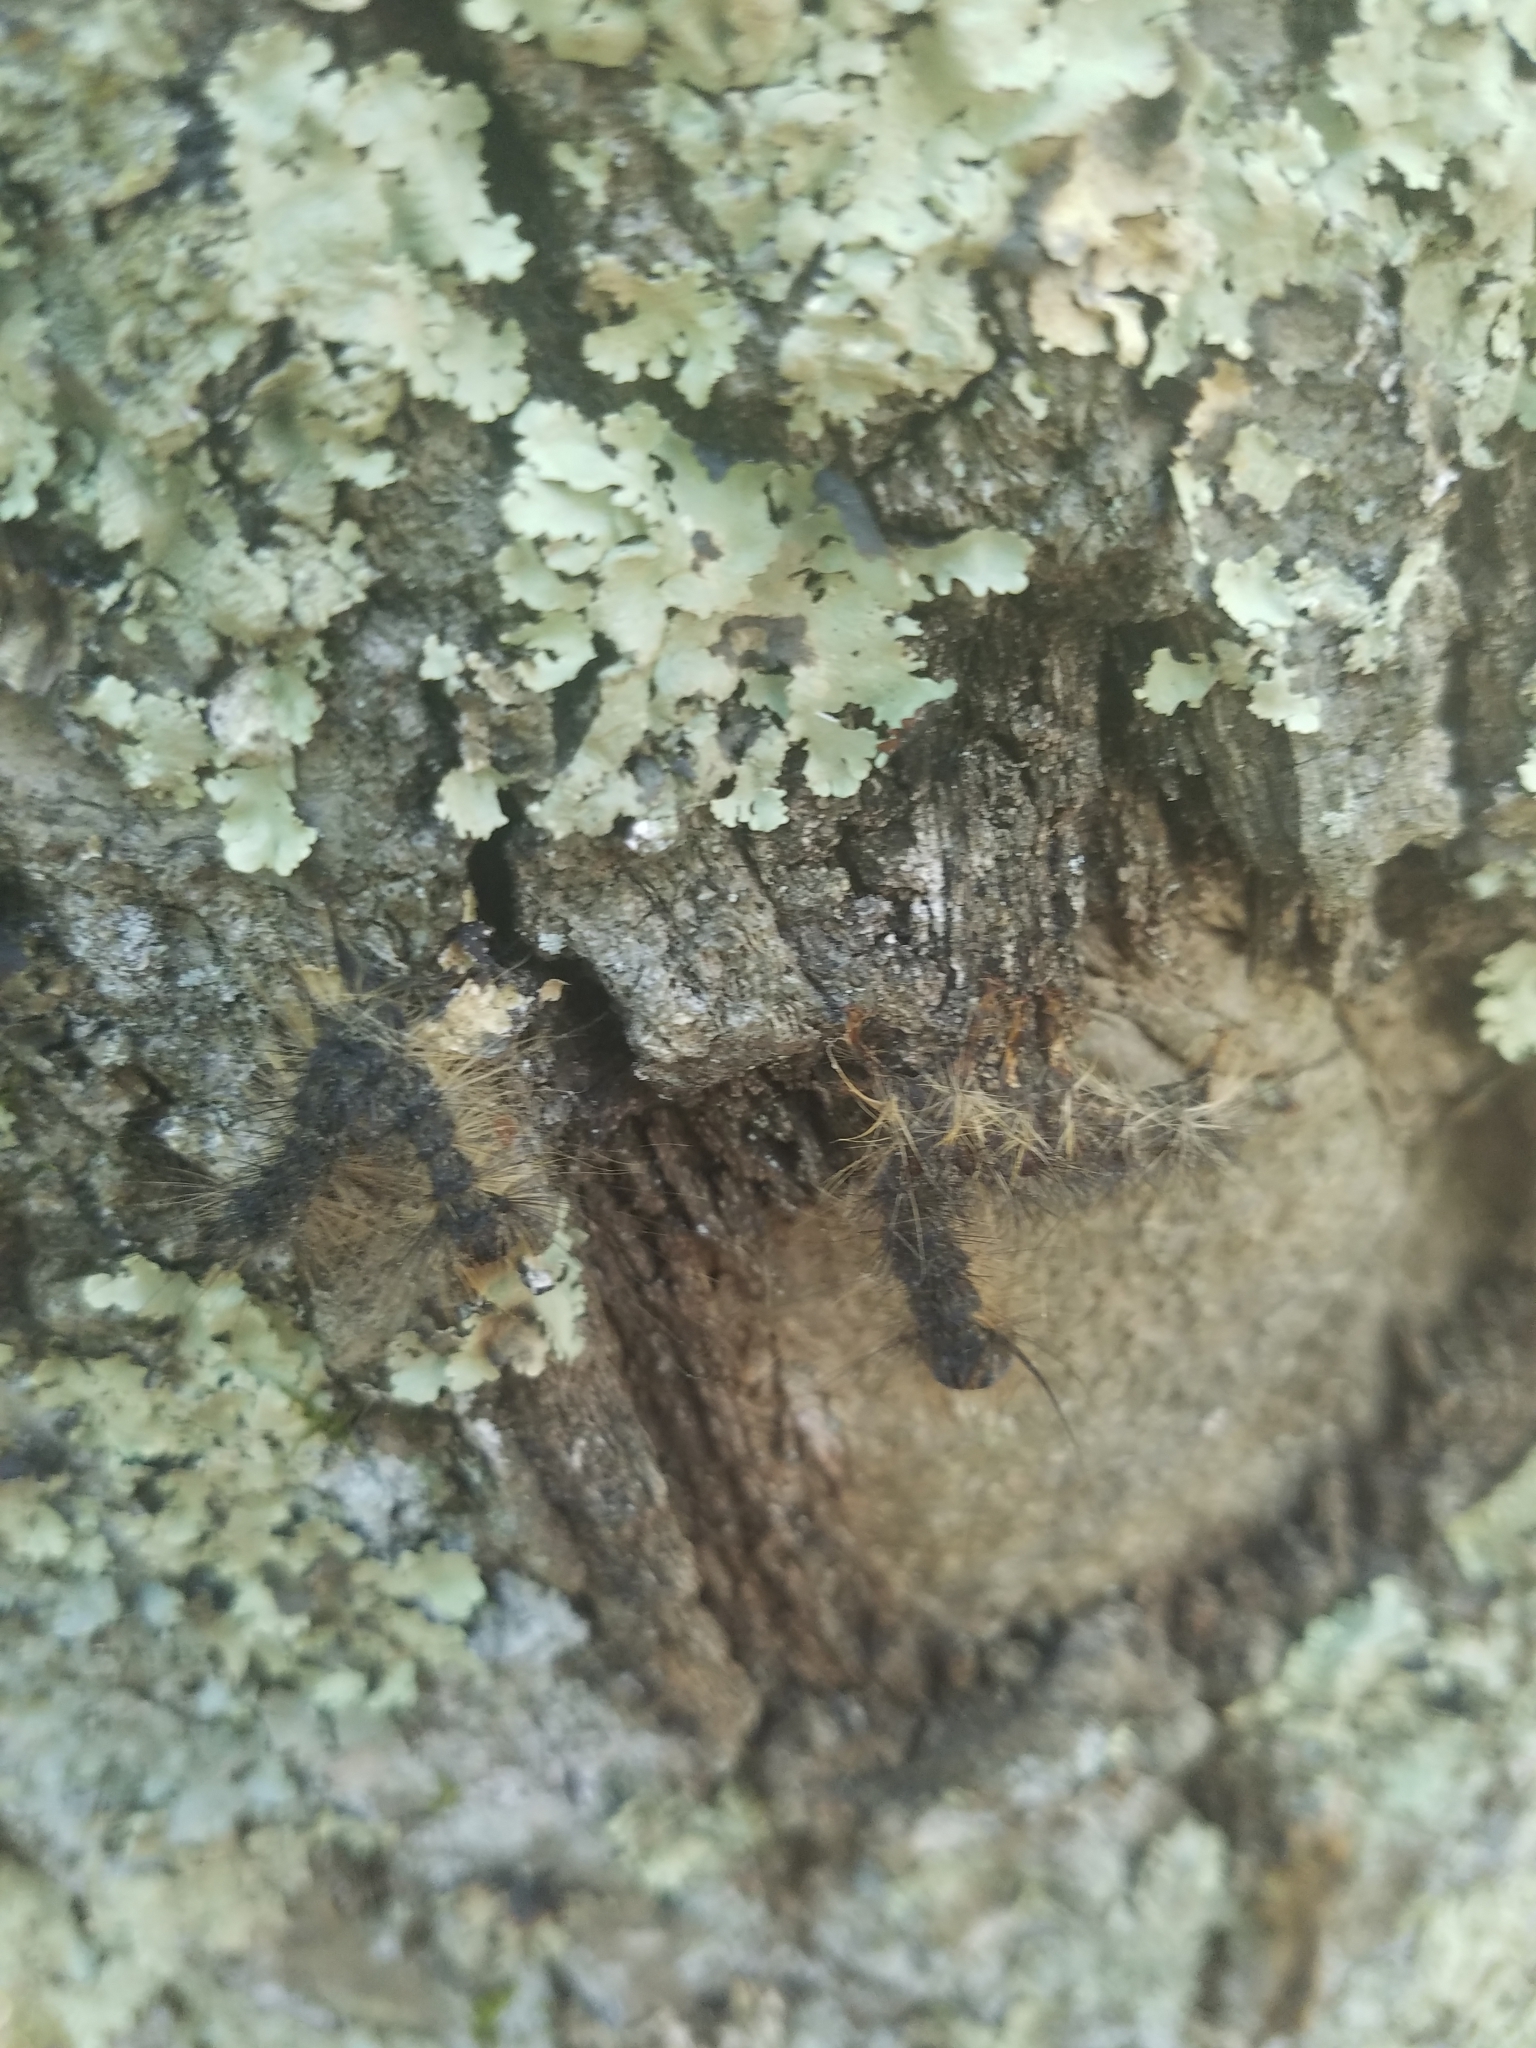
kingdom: Animalia
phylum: Arthropoda
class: Insecta
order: Lepidoptera
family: Erebidae
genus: Lymantria
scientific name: Lymantria dispar
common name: Gypsy moth
